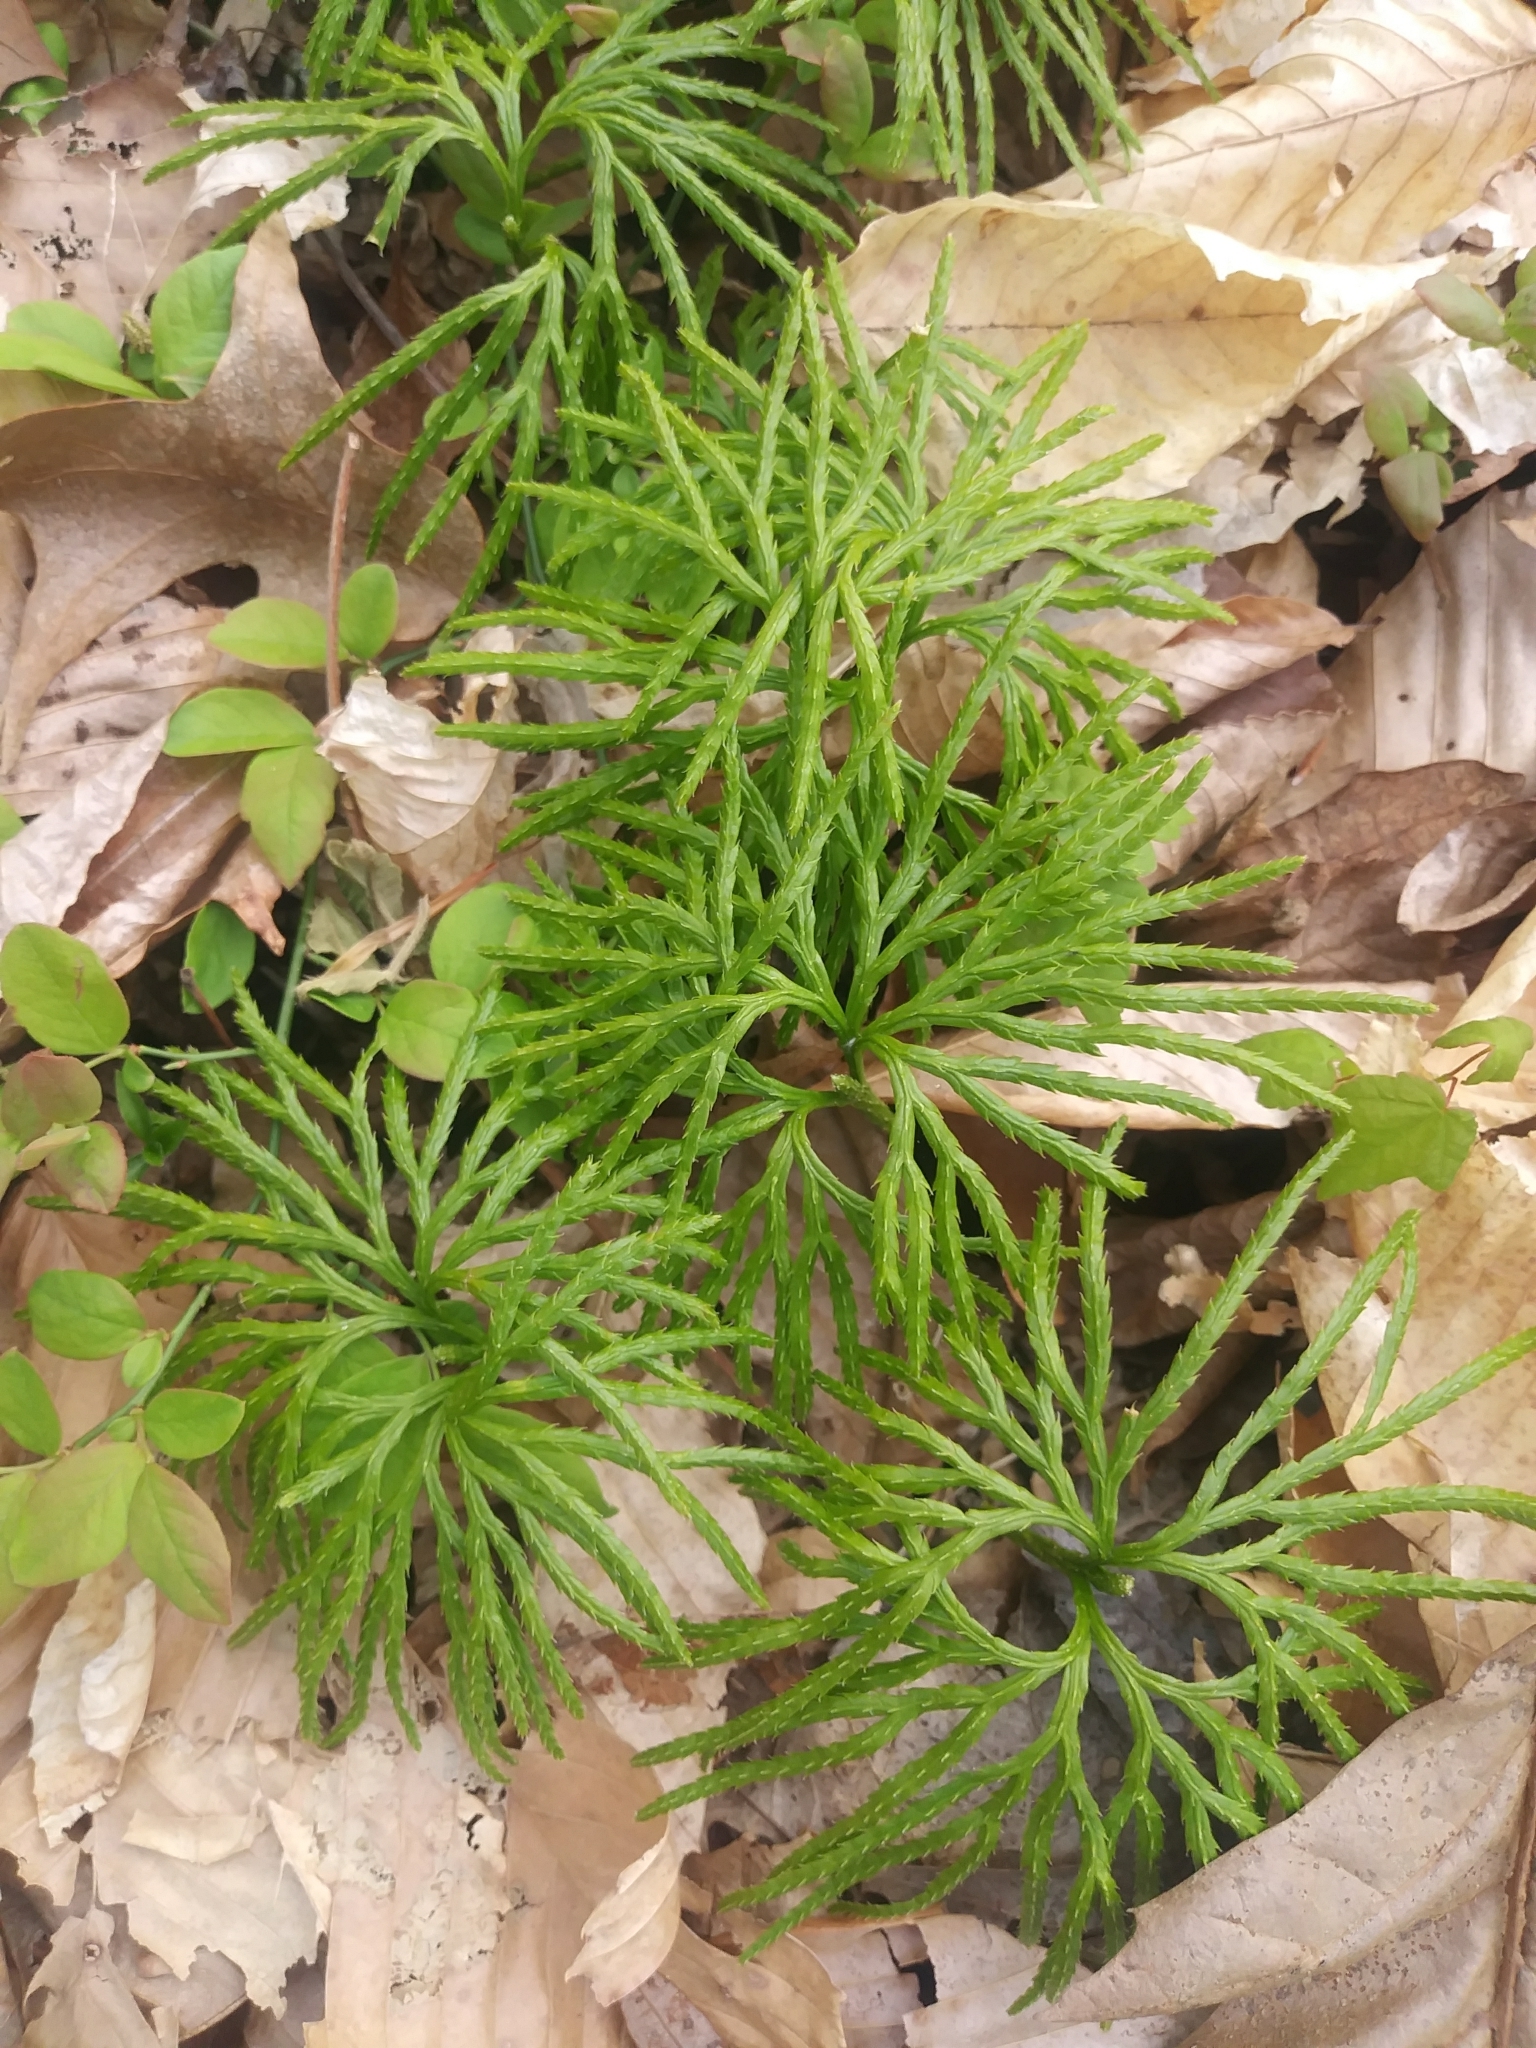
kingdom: Plantae
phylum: Tracheophyta
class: Lycopodiopsida
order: Lycopodiales
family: Lycopodiaceae
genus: Diphasiastrum
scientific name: Diphasiastrum digitatum
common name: Southern running-pine
